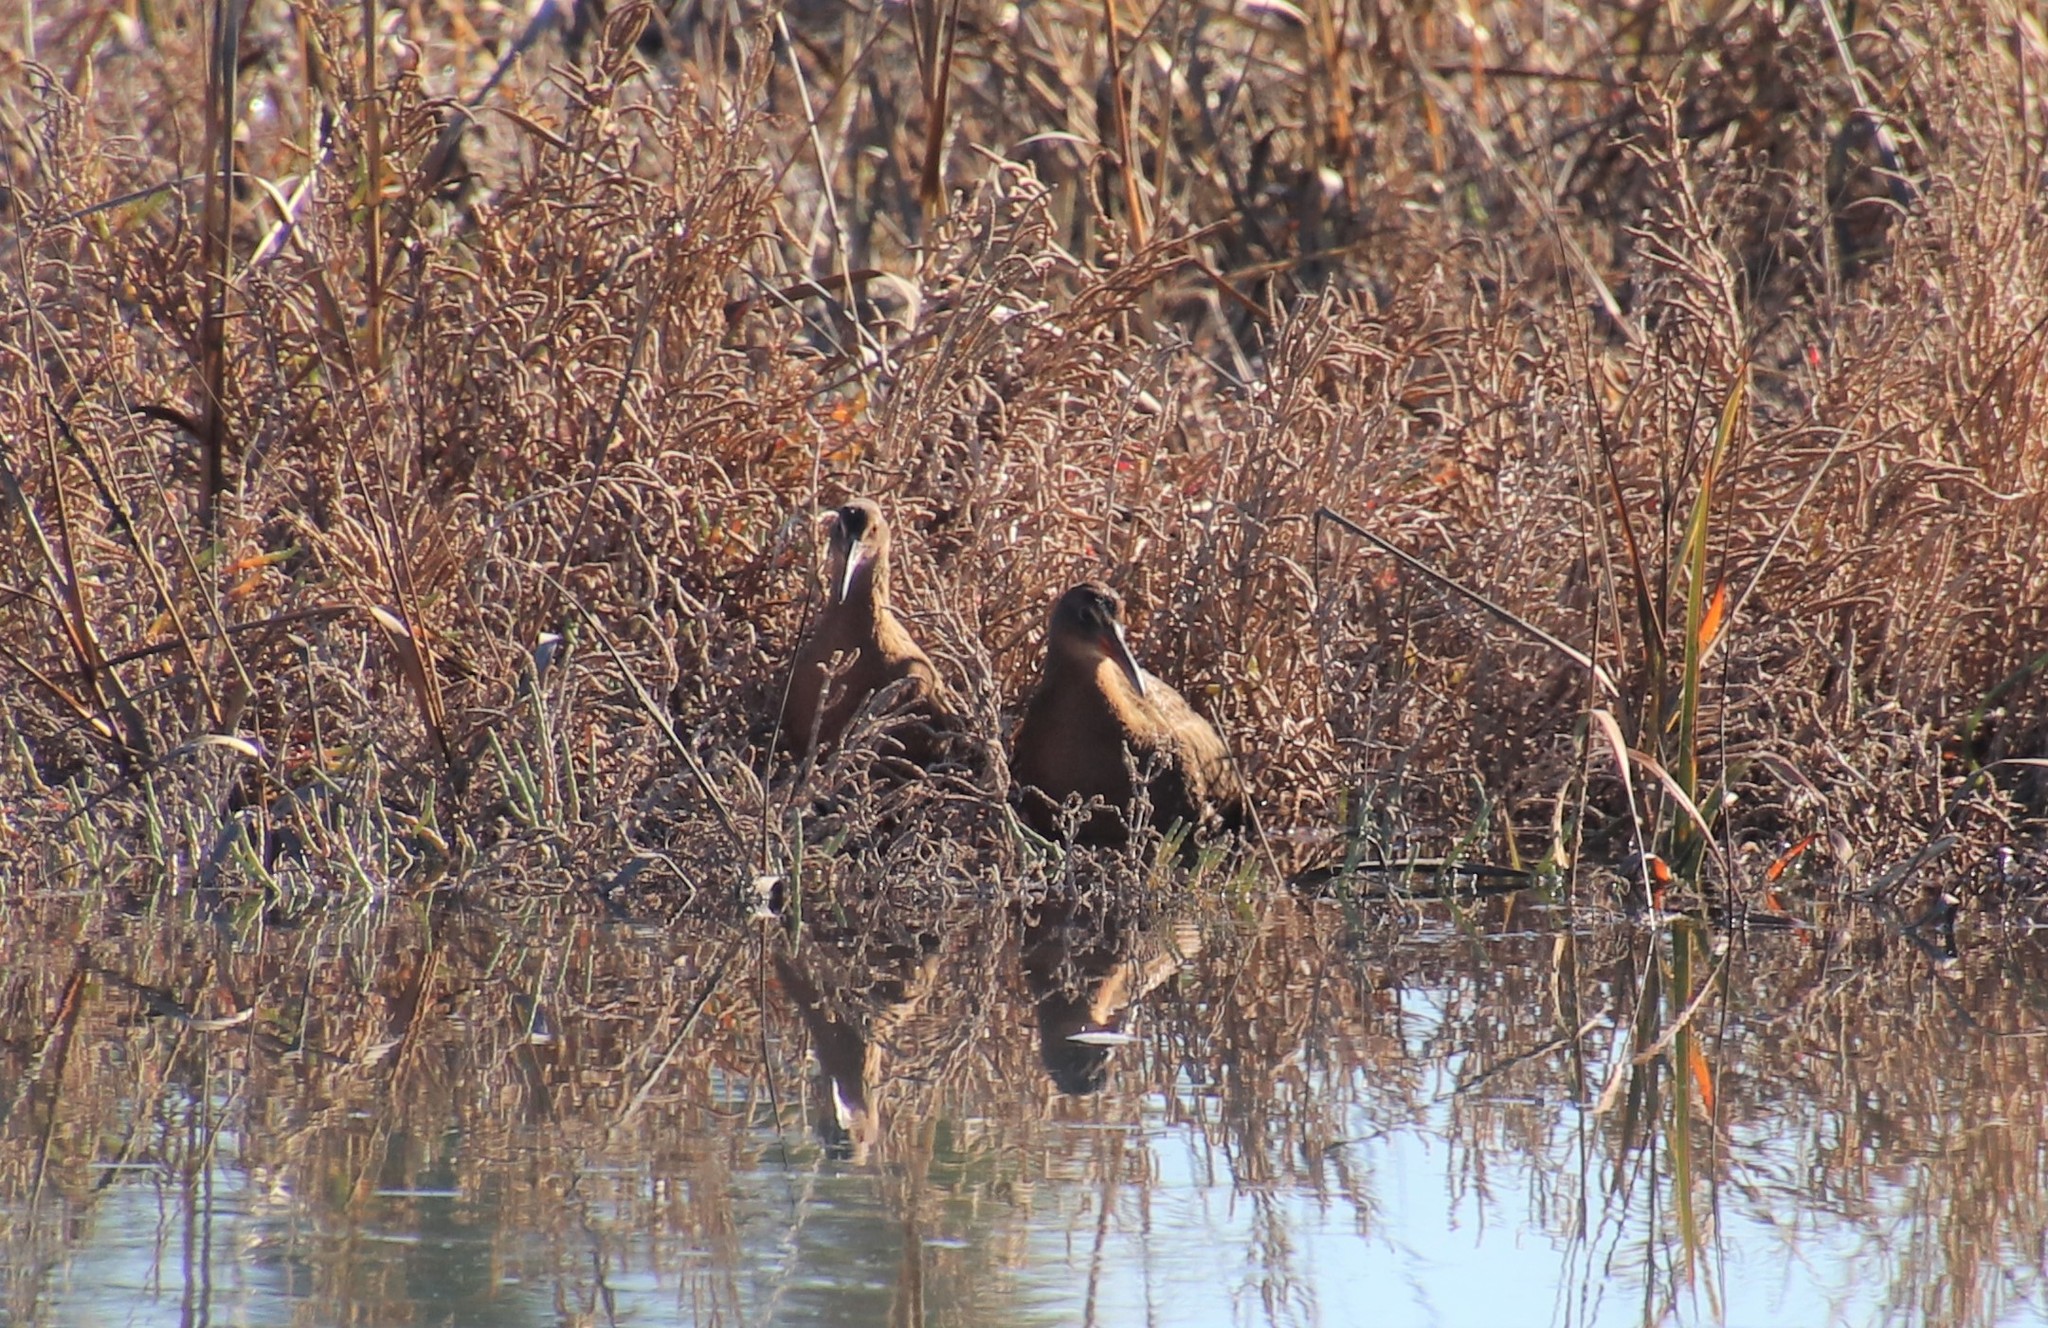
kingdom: Animalia
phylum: Chordata
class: Aves
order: Gruiformes
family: Rallidae
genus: Rallus
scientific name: Rallus obsoletus
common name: Ridgway's rail
